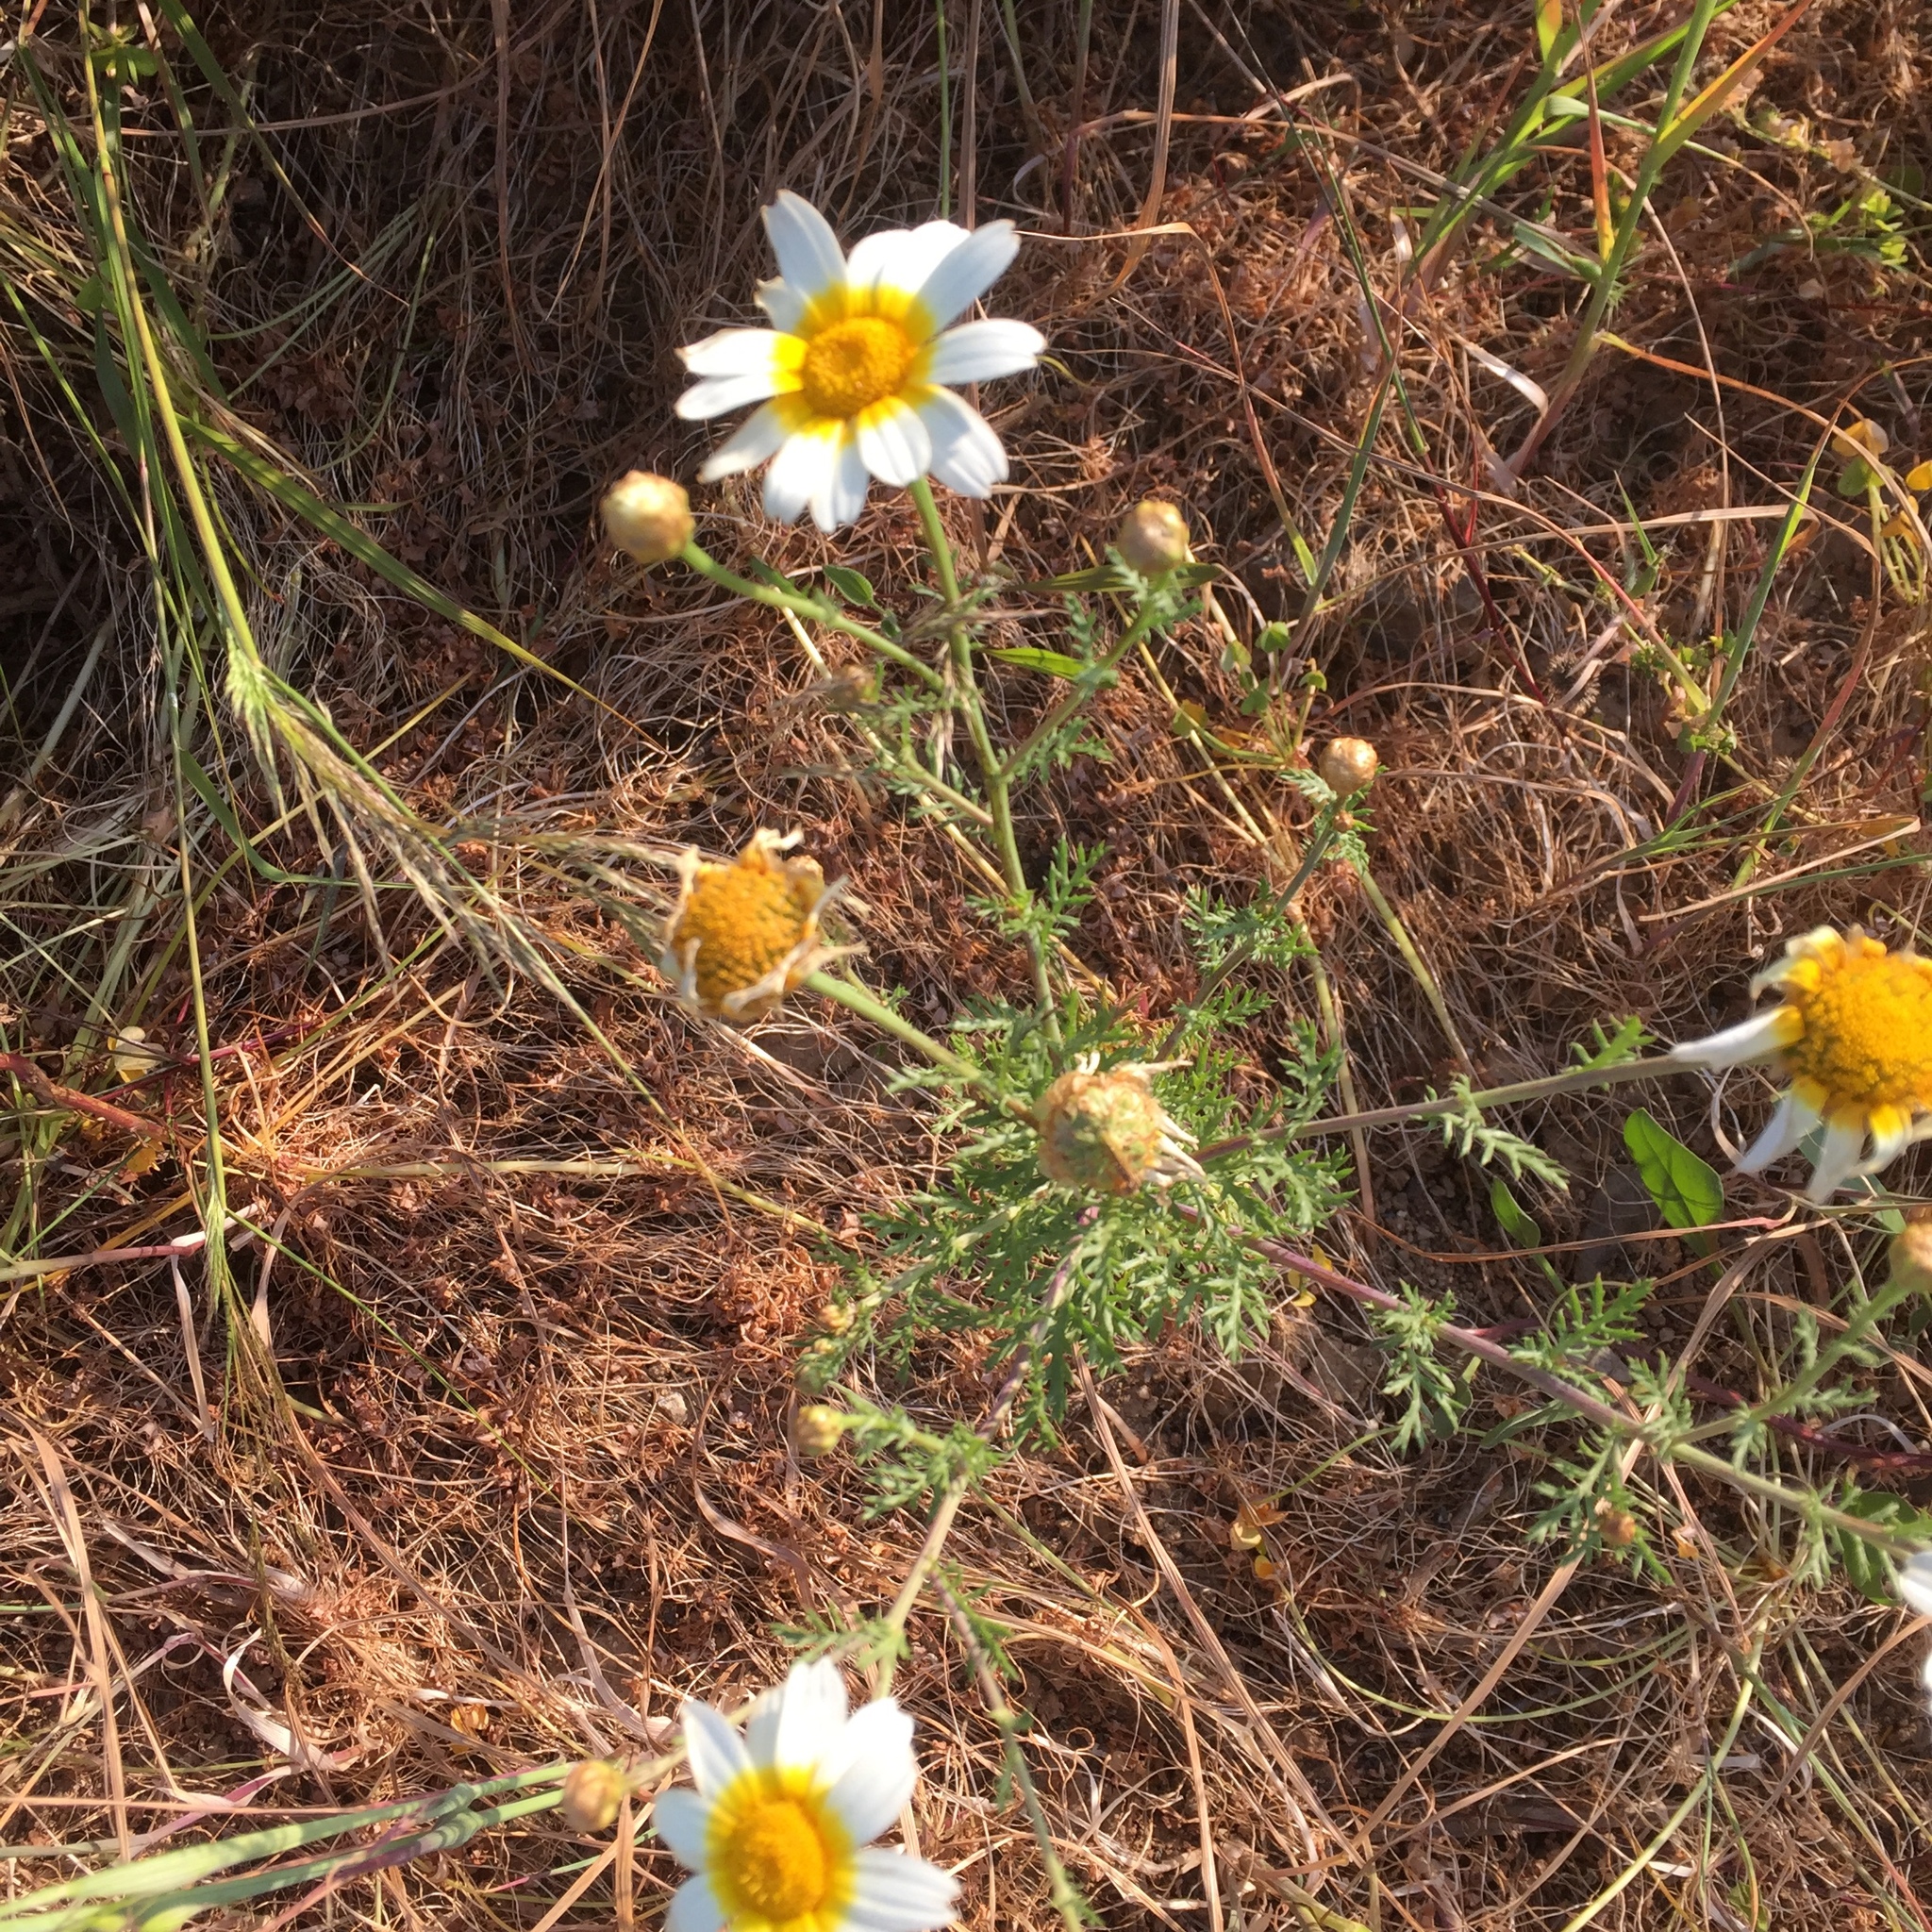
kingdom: Plantae
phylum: Tracheophyta
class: Magnoliopsida
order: Asterales
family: Asteraceae
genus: Glebionis
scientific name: Glebionis coronaria
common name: Crowndaisy
